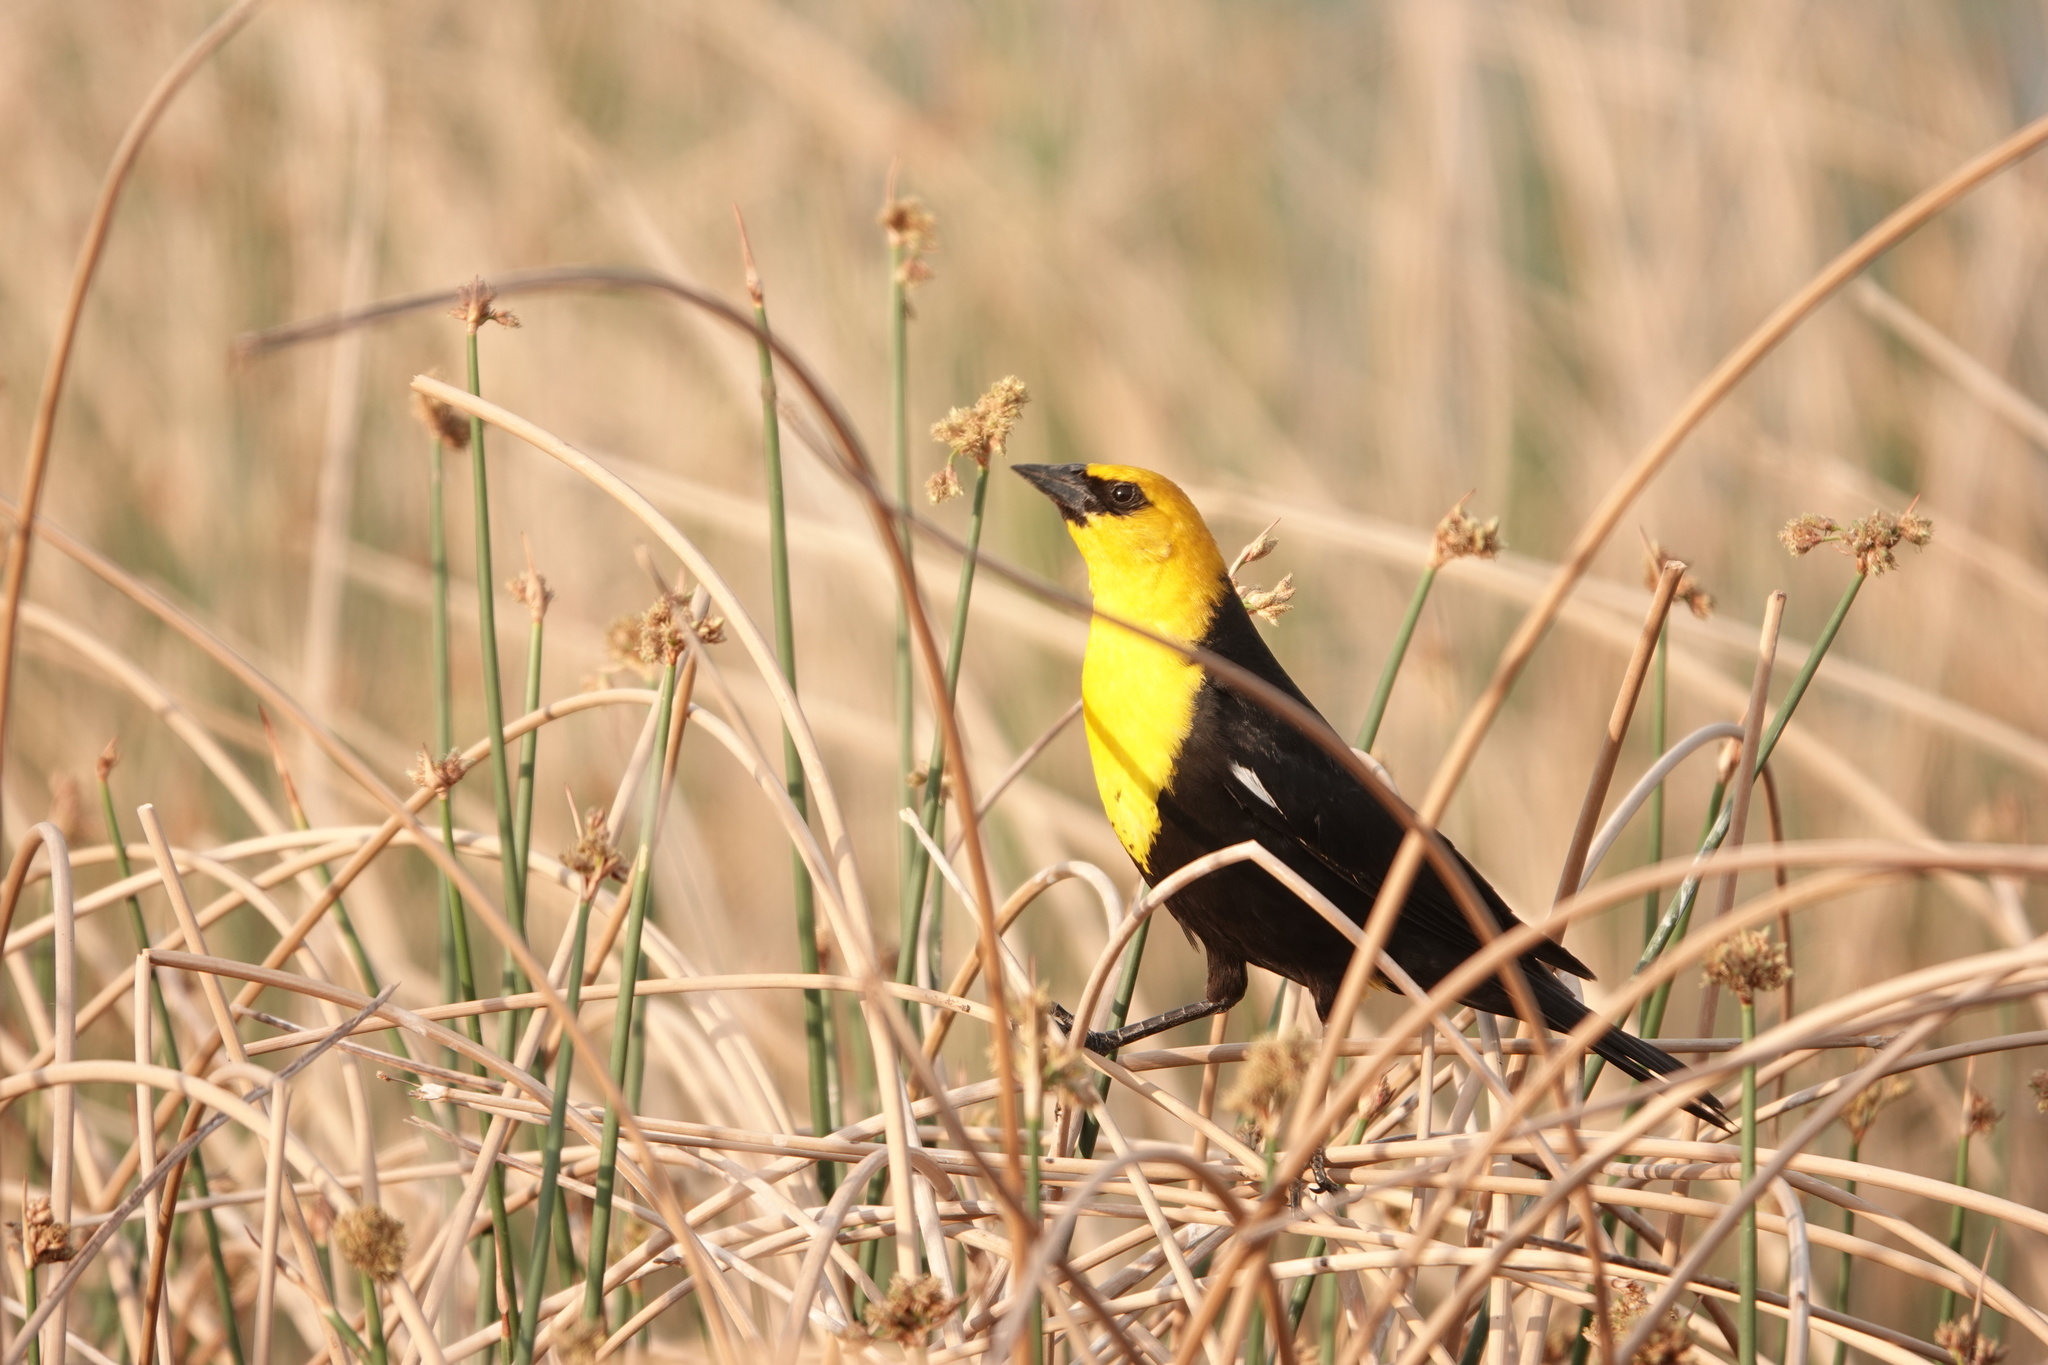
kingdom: Animalia
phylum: Chordata
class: Aves
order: Passeriformes
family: Icteridae
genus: Xanthocephalus
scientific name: Xanthocephalus xanthocephalus
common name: Yellow-headed blackbird
